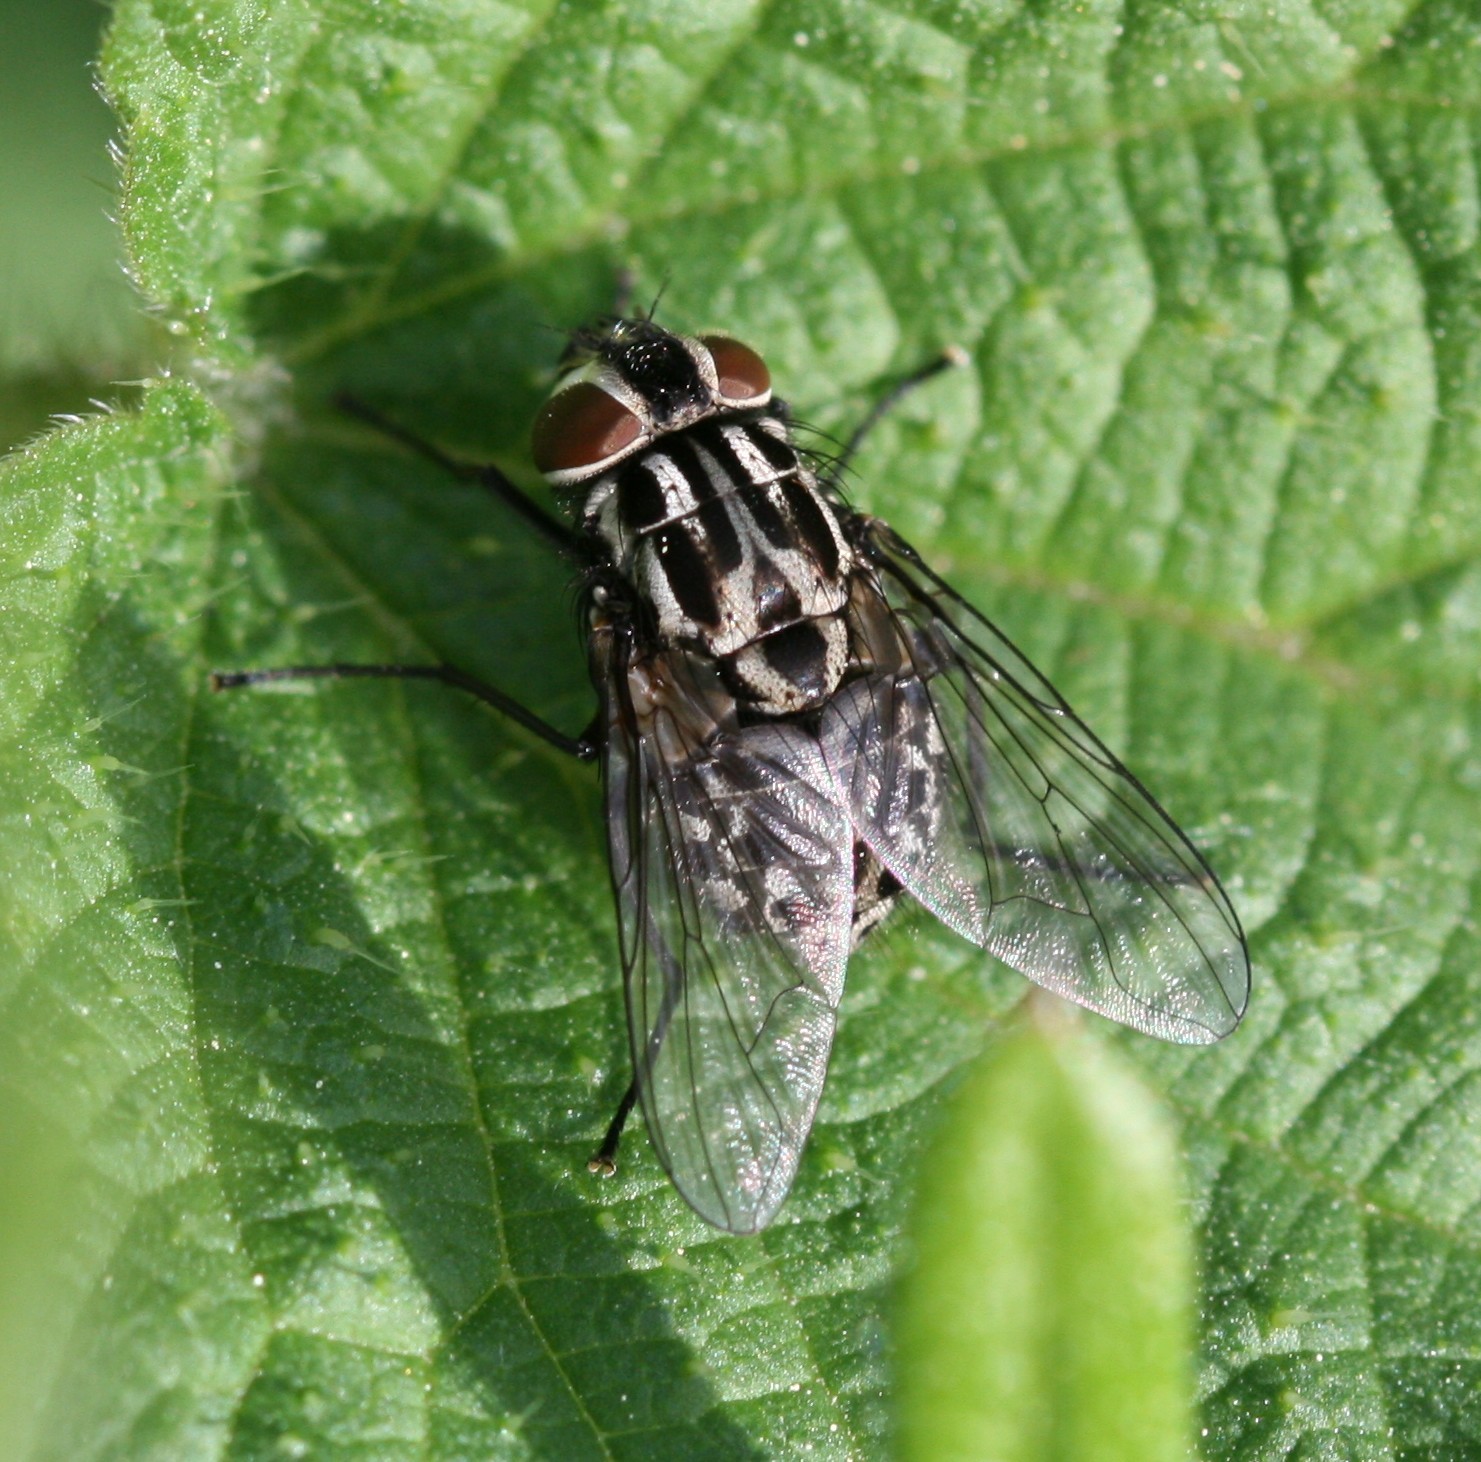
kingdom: Animalia
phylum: Arthropoda
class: Insecta
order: Diptera
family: Muscidae
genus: Graphomya
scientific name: Graphomya maculata
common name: Muscid fly
